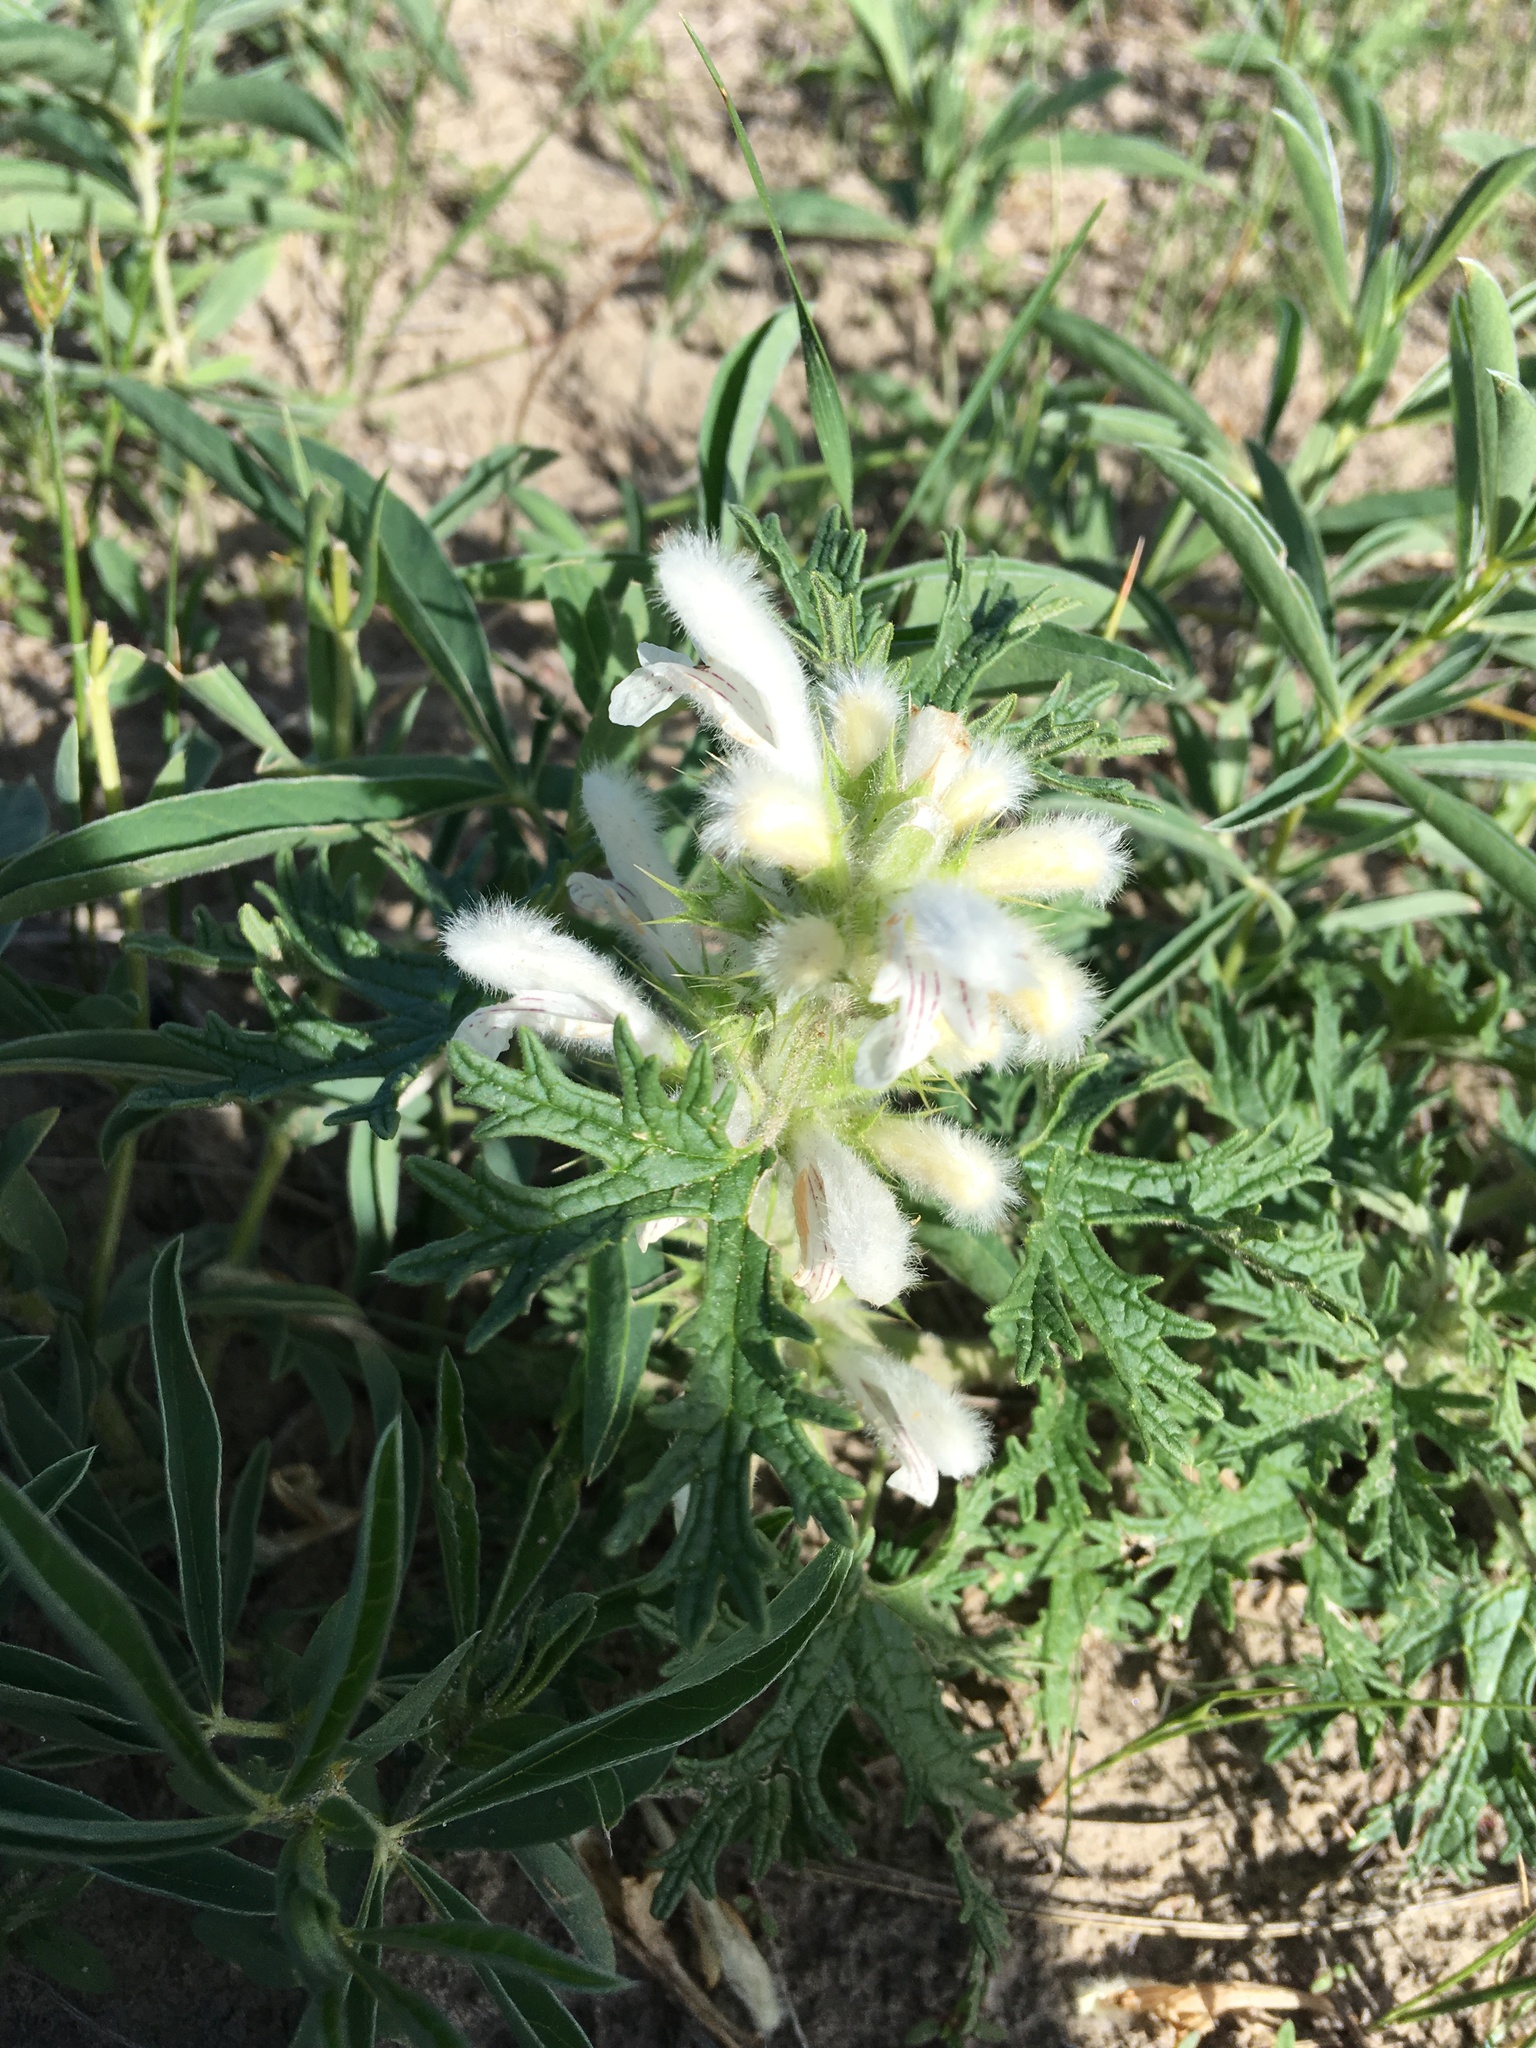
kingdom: Plantae
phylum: Tracheophyta
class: Magnoliopsida
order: Lamiales
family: Lamiaceae
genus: Panzerina
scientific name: Panzerina lanata
